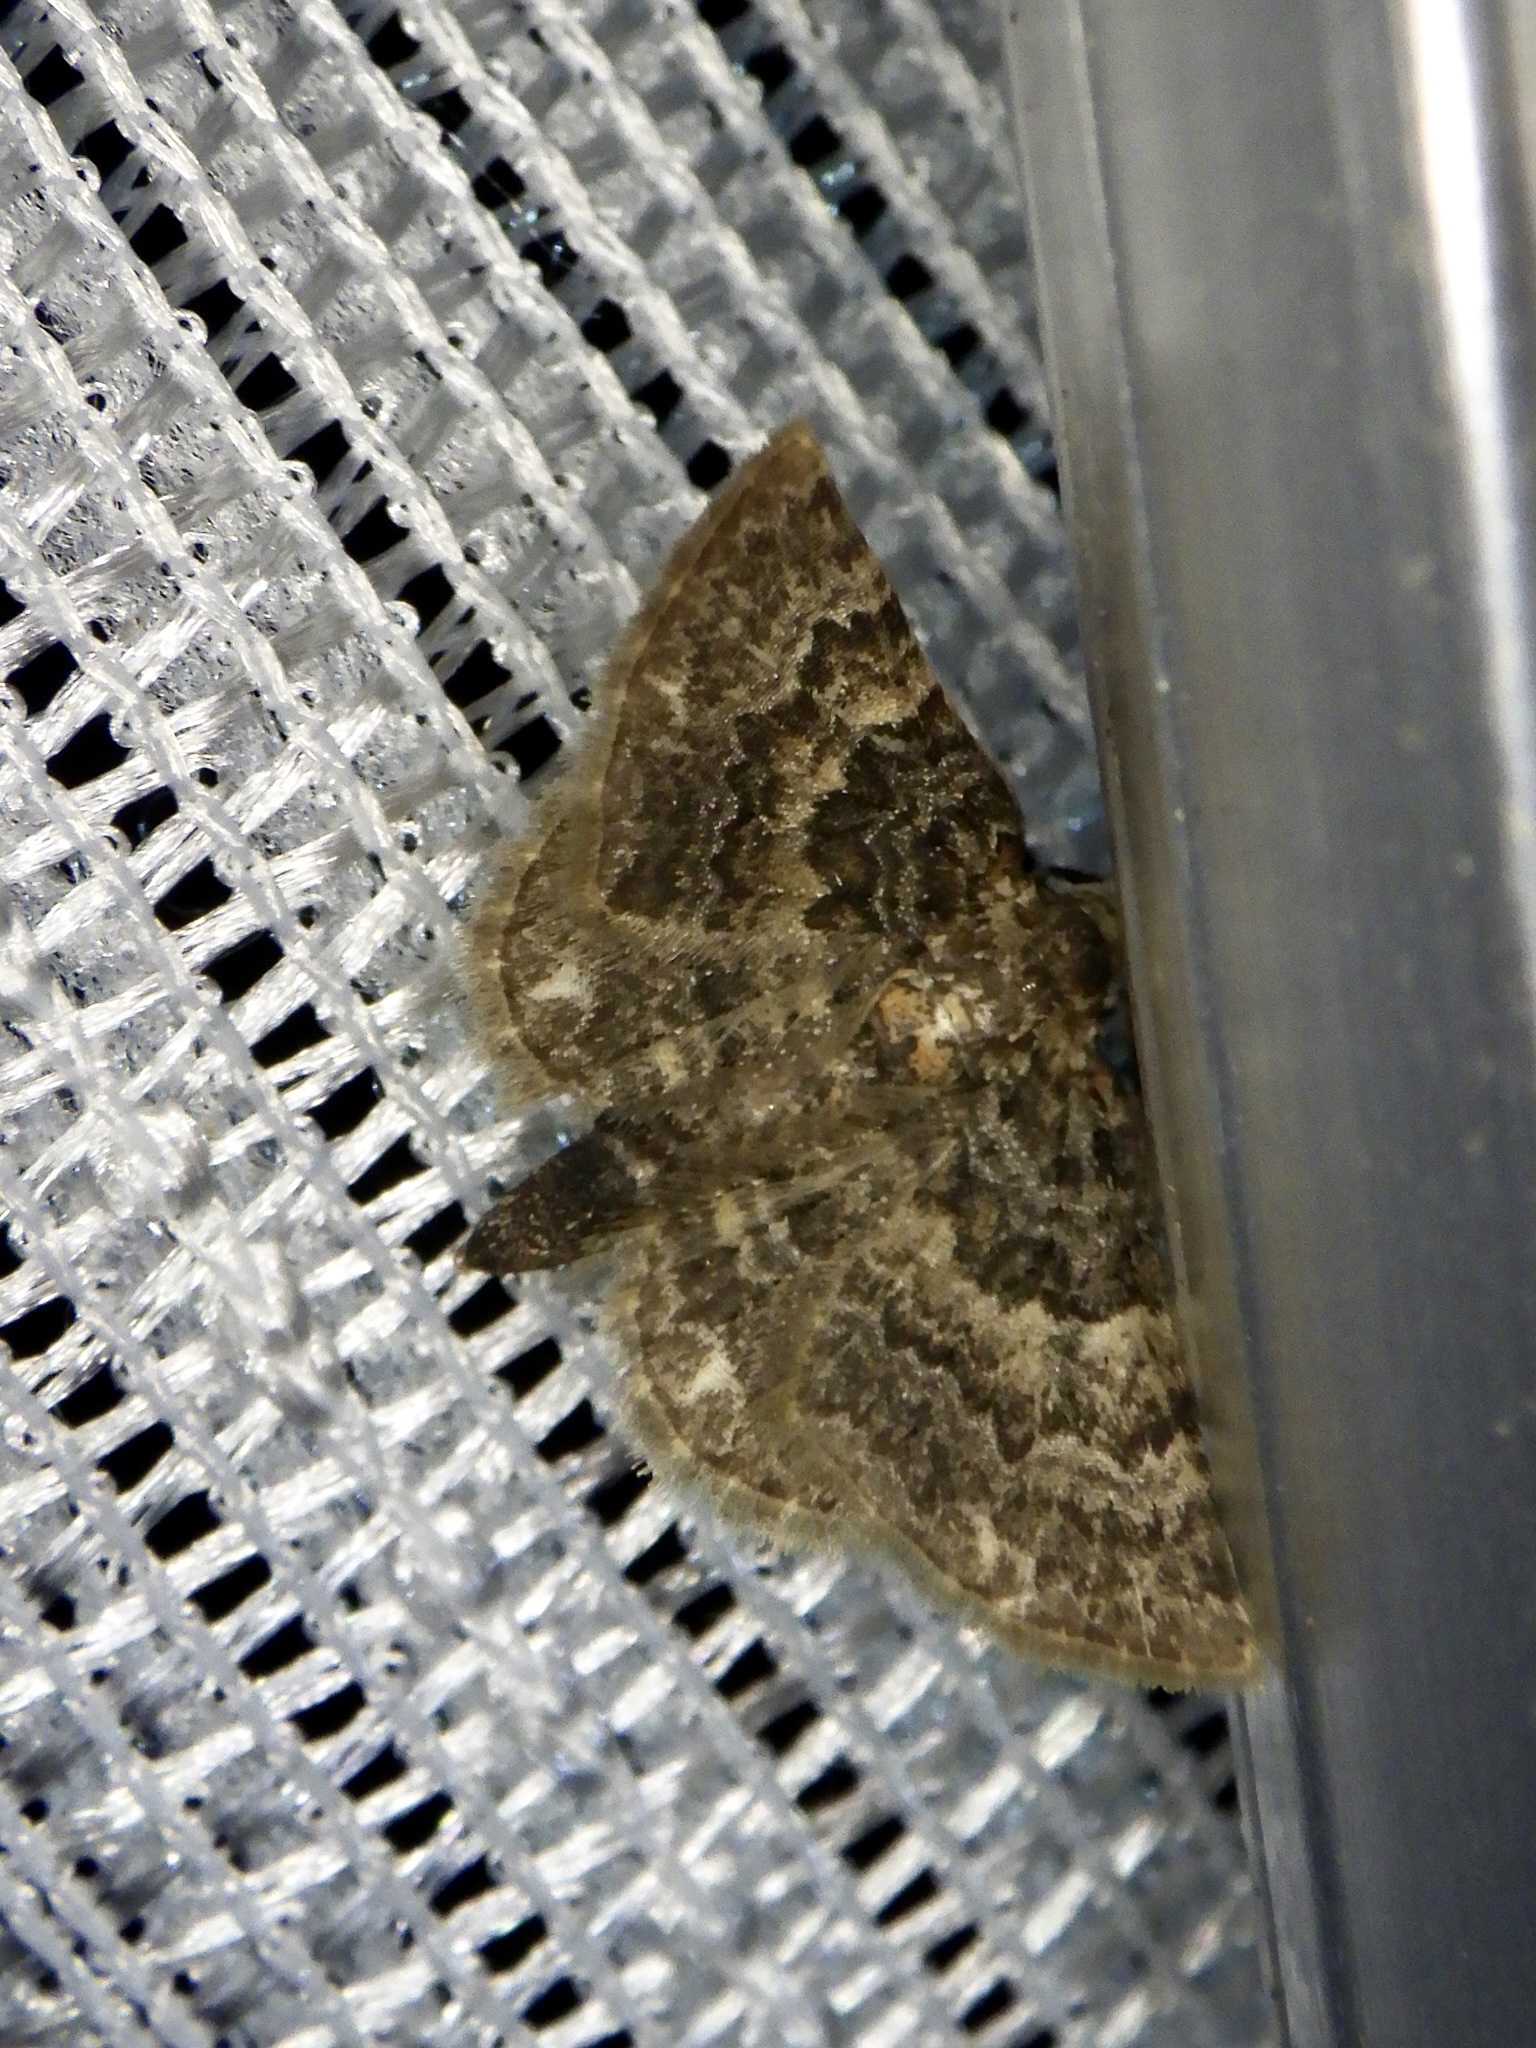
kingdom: Animalia
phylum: Arthropoda
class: Insecta
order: Lepidoptera
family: Geometridae
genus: Gymnoscelis
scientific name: Gymnoscelis esakii
